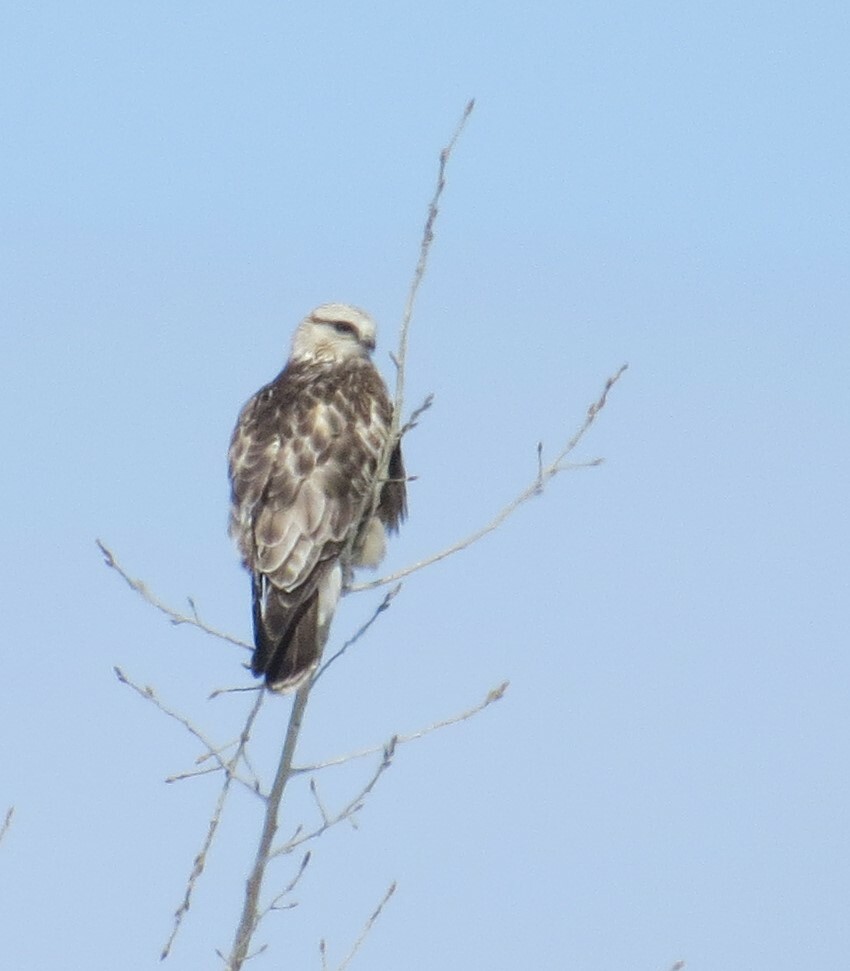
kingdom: Animalia
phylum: Chordata
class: Aves
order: Accipitriformes
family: Accipitridae
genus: Buteo
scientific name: Buteo lagopus
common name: Rough-legged buzzard
